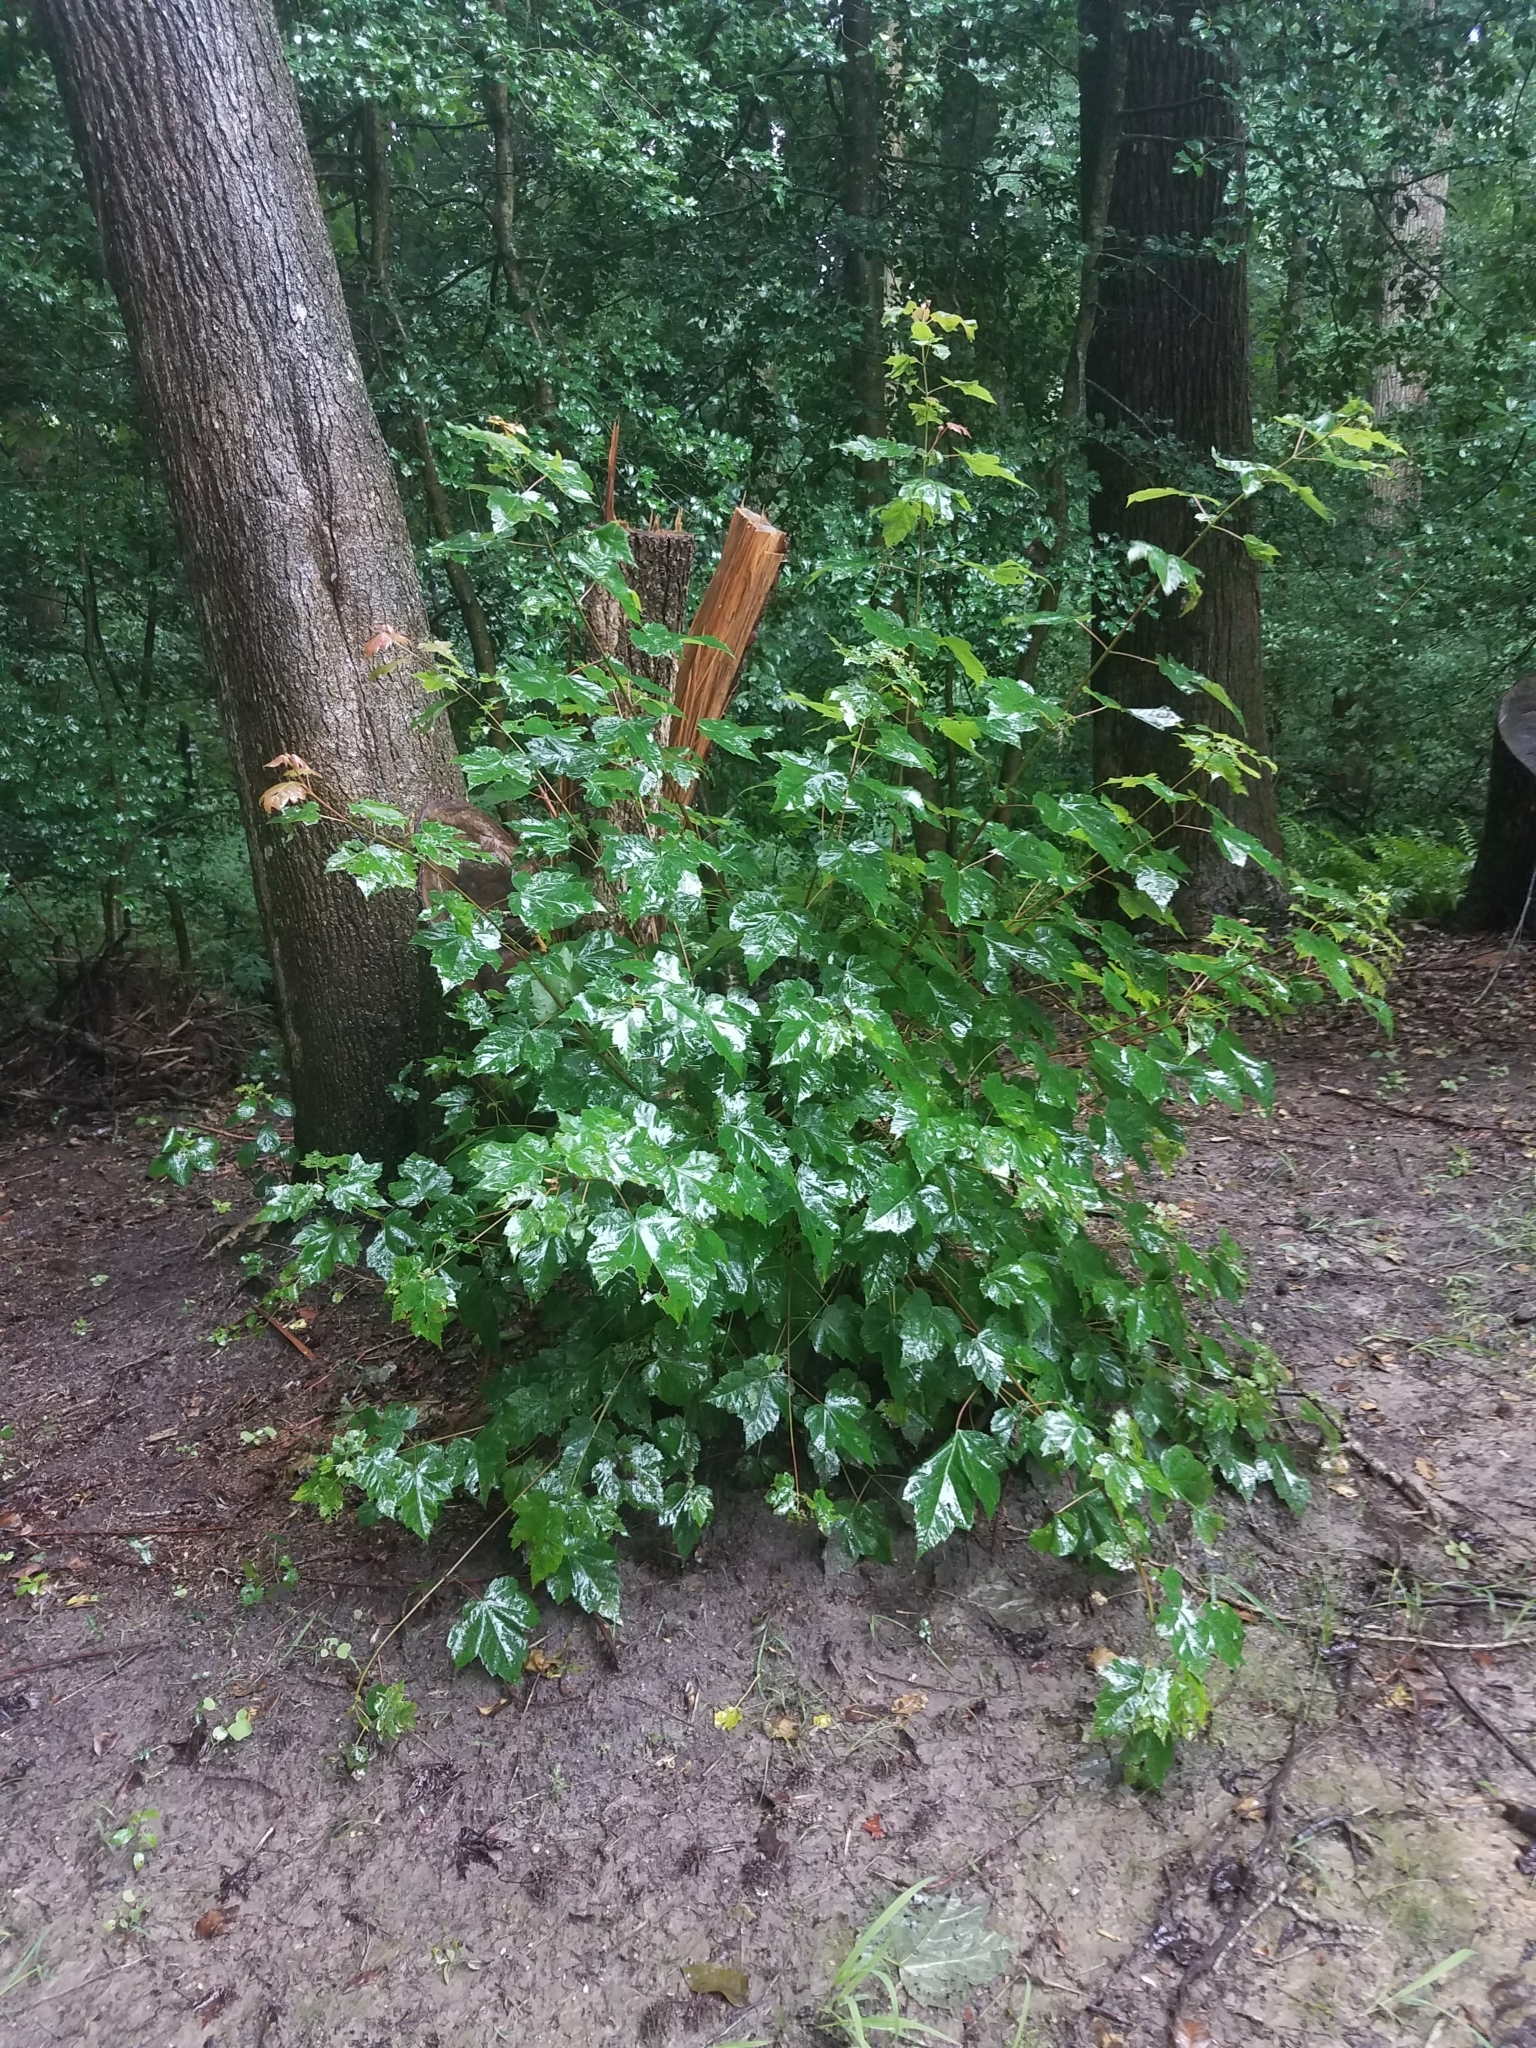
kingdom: Plantae
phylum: Tracheophyta
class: Magnoliopsida
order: Sapindales
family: Sapindaceae
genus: Acer
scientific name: Acer rubrum
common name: Red maple
